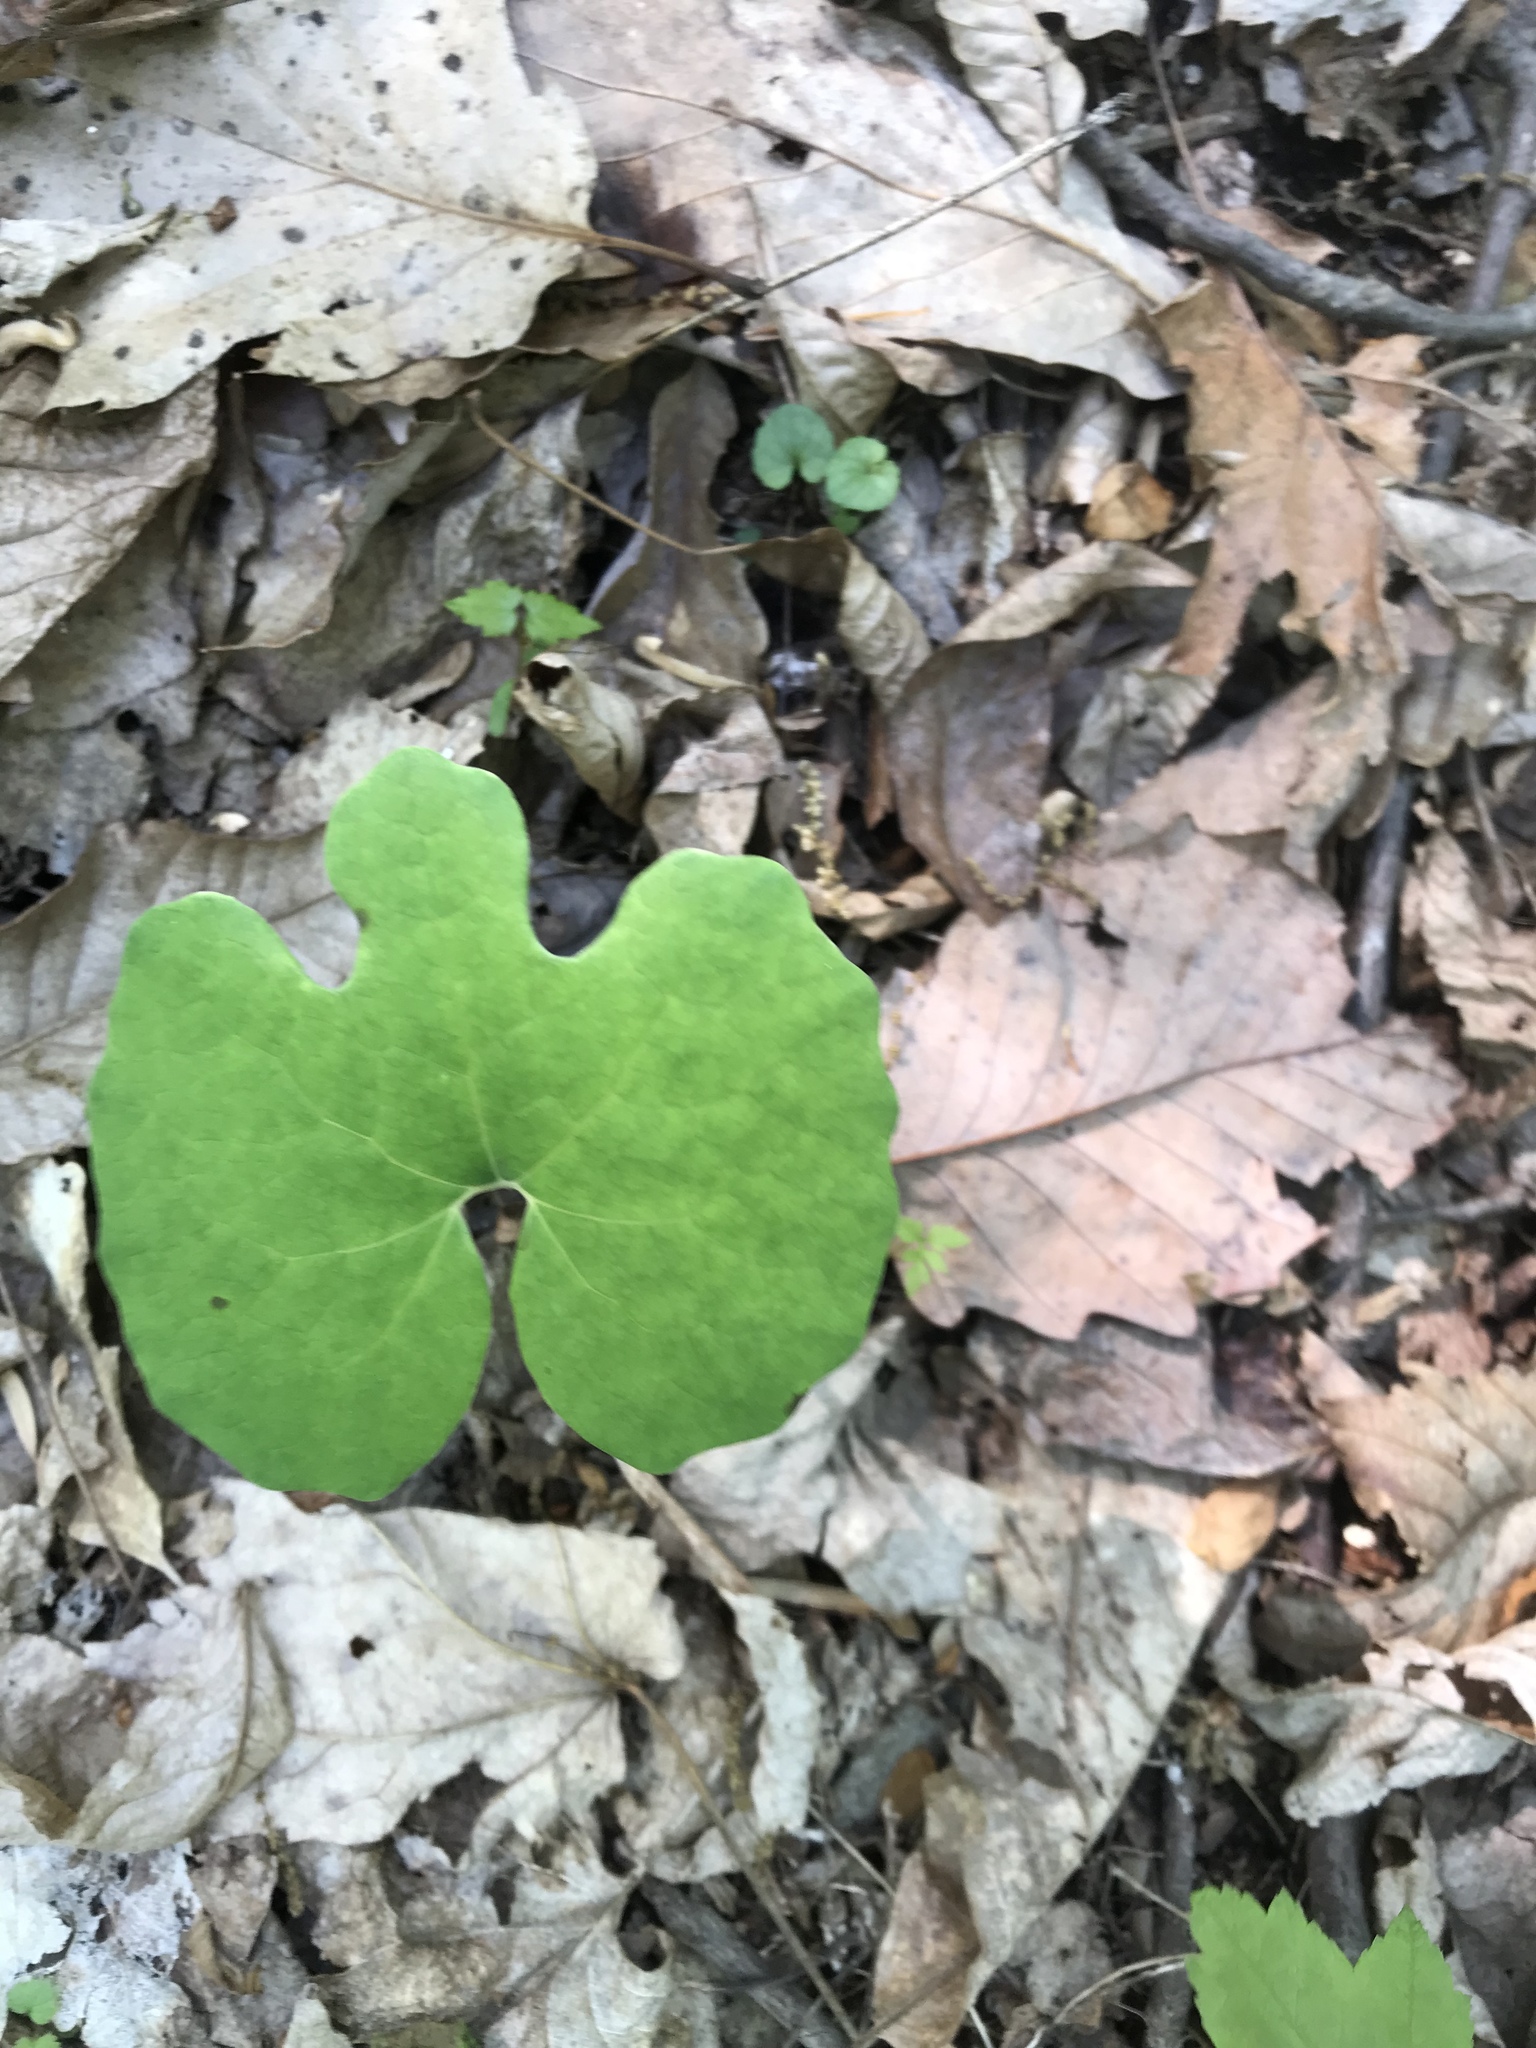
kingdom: Plantae
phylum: Tracheophyta
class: Magnoliopsida
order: Ranunculales
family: Papaveraceae
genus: Sanguinaria
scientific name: Sanguinaria canadensis
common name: Bloodroot
